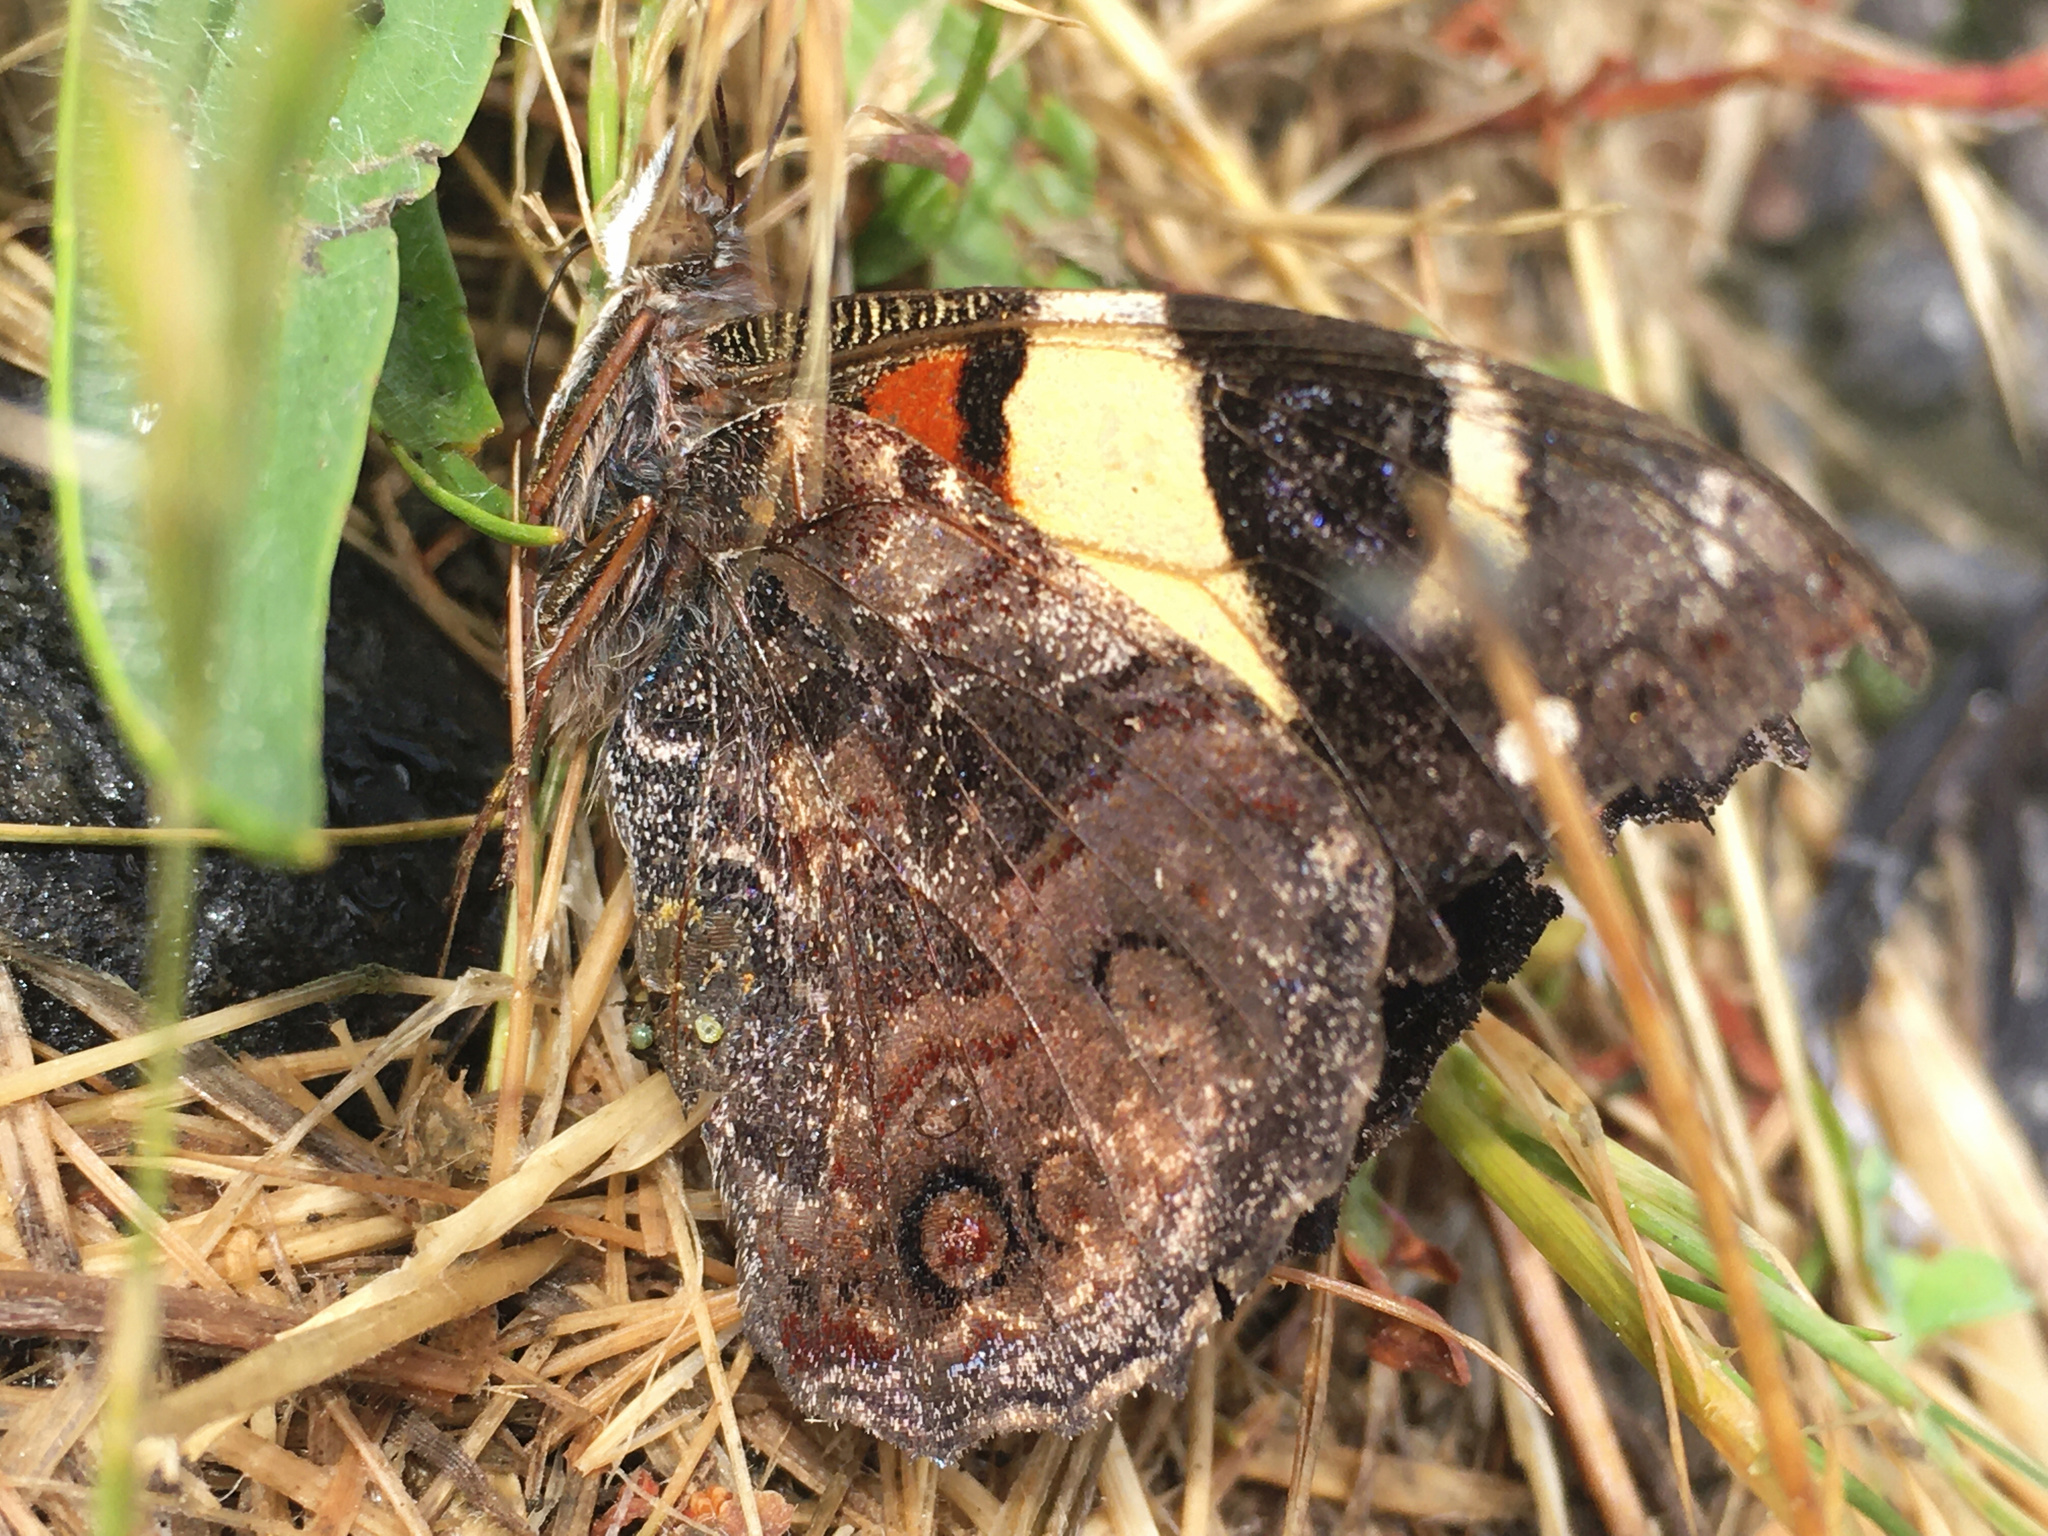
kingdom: Animalia
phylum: Arthropoda
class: Insecta
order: Lepidoptera
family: Nymphalidae
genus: Vanessa
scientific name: Vanessa itea
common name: Yellow admiral
